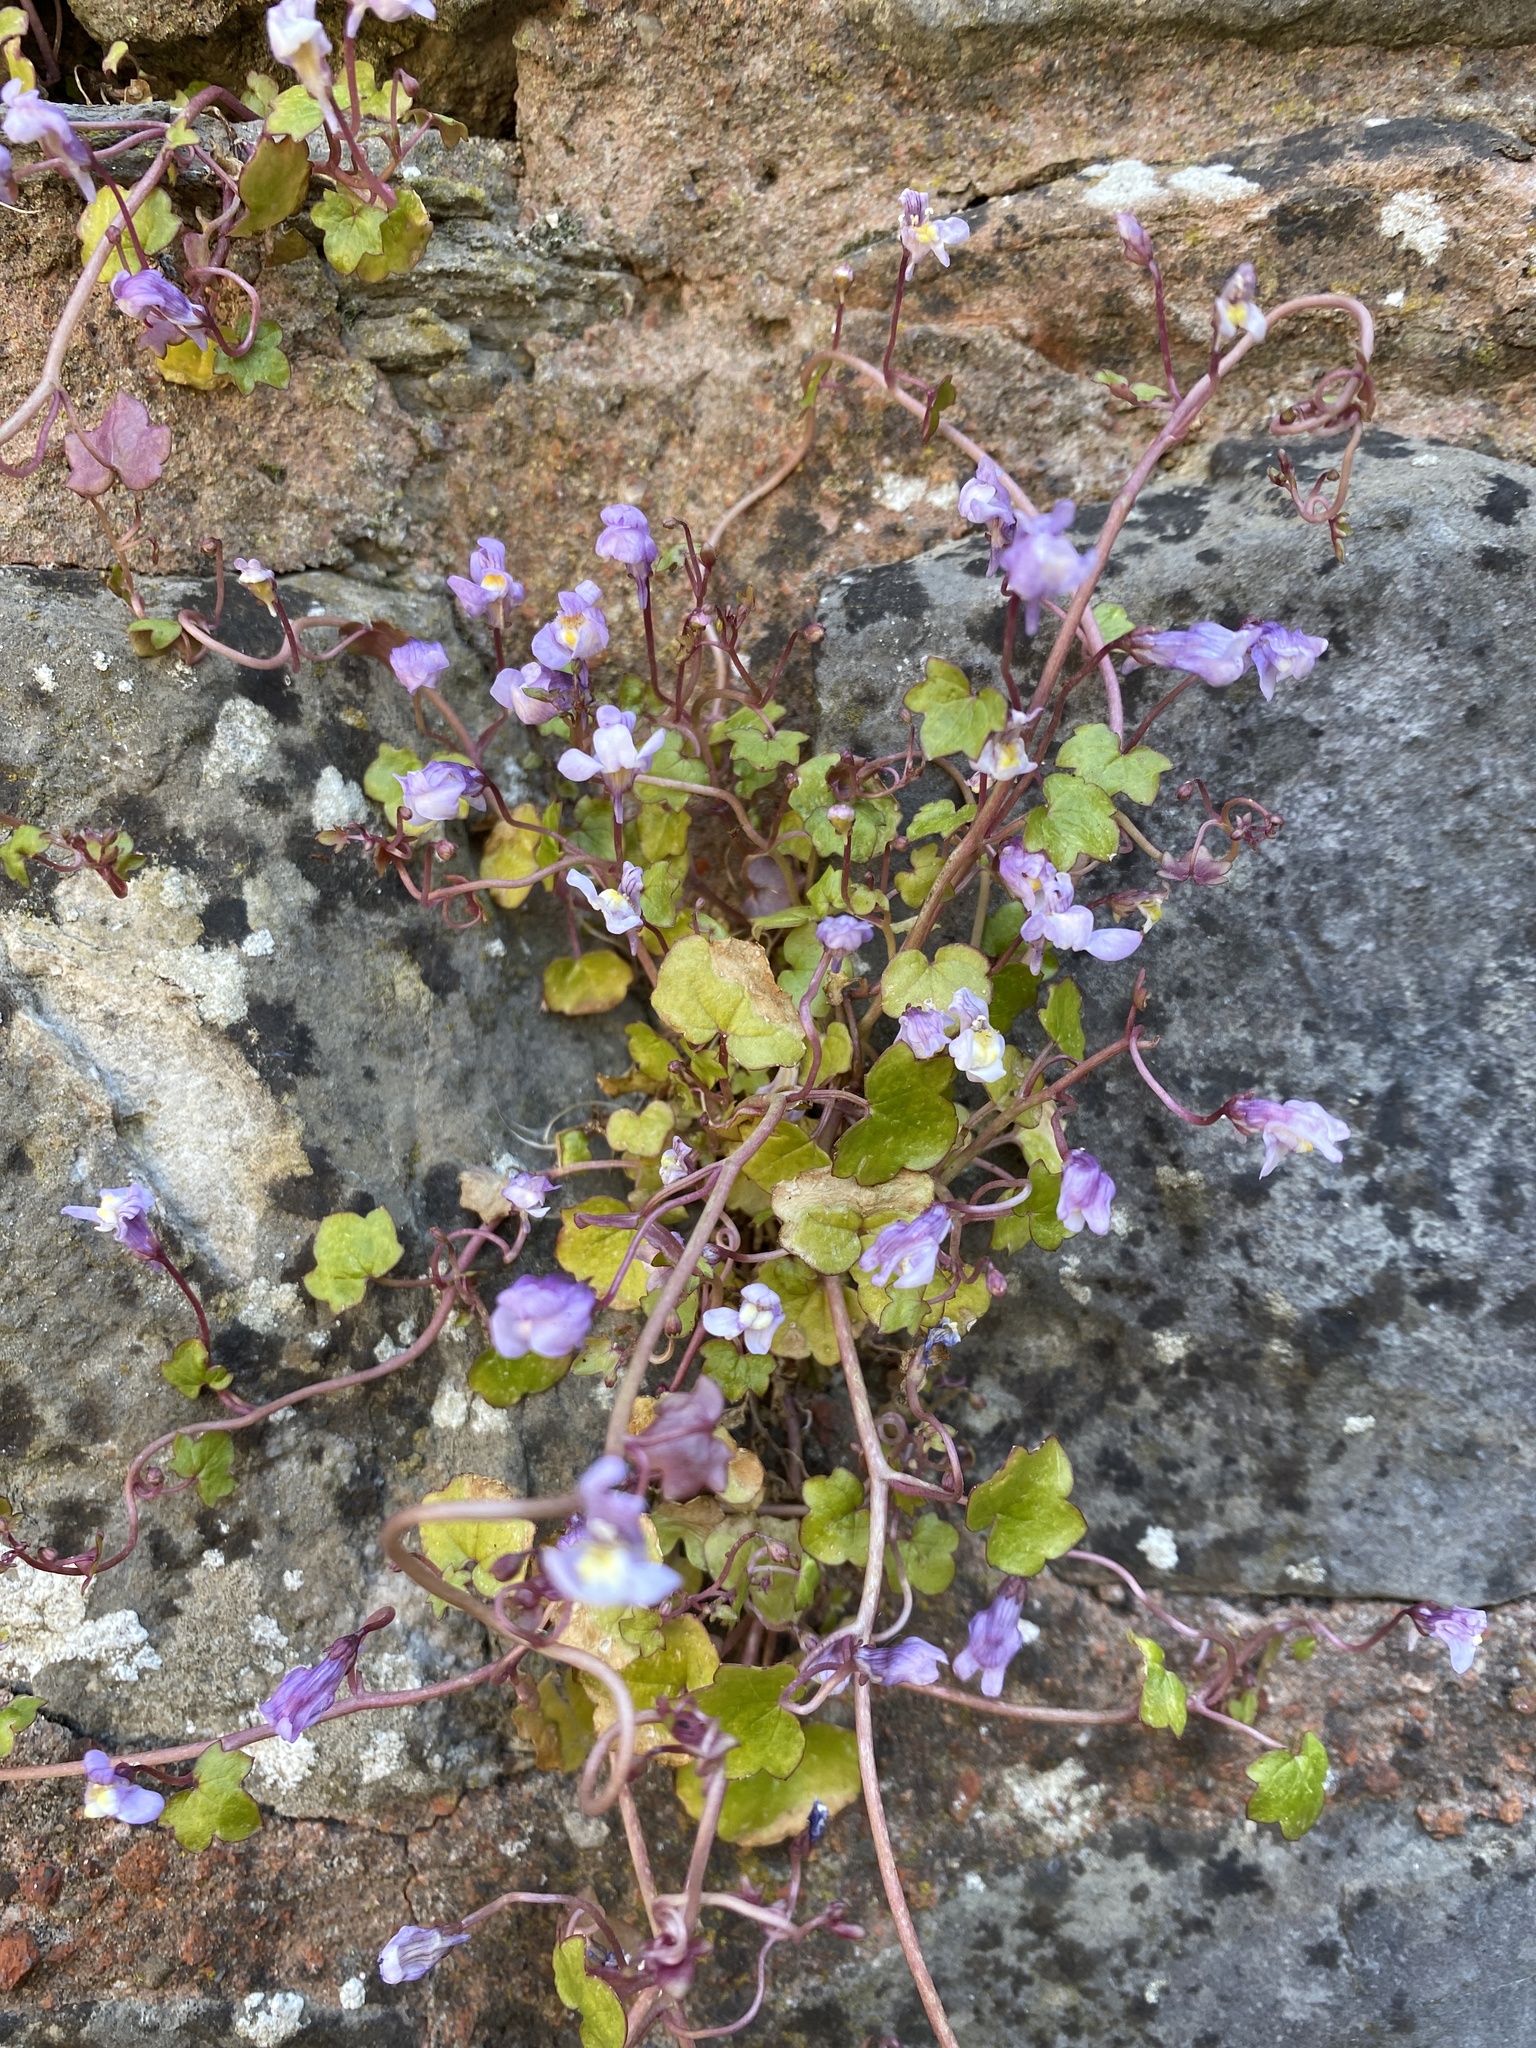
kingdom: Plantae
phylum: Tracheophyta
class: Magnoliopsida
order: Lamiales
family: Plantaginaceae
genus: Cymbalaria
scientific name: Cymbalaria muralis
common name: Ivy-leaved toadflax
